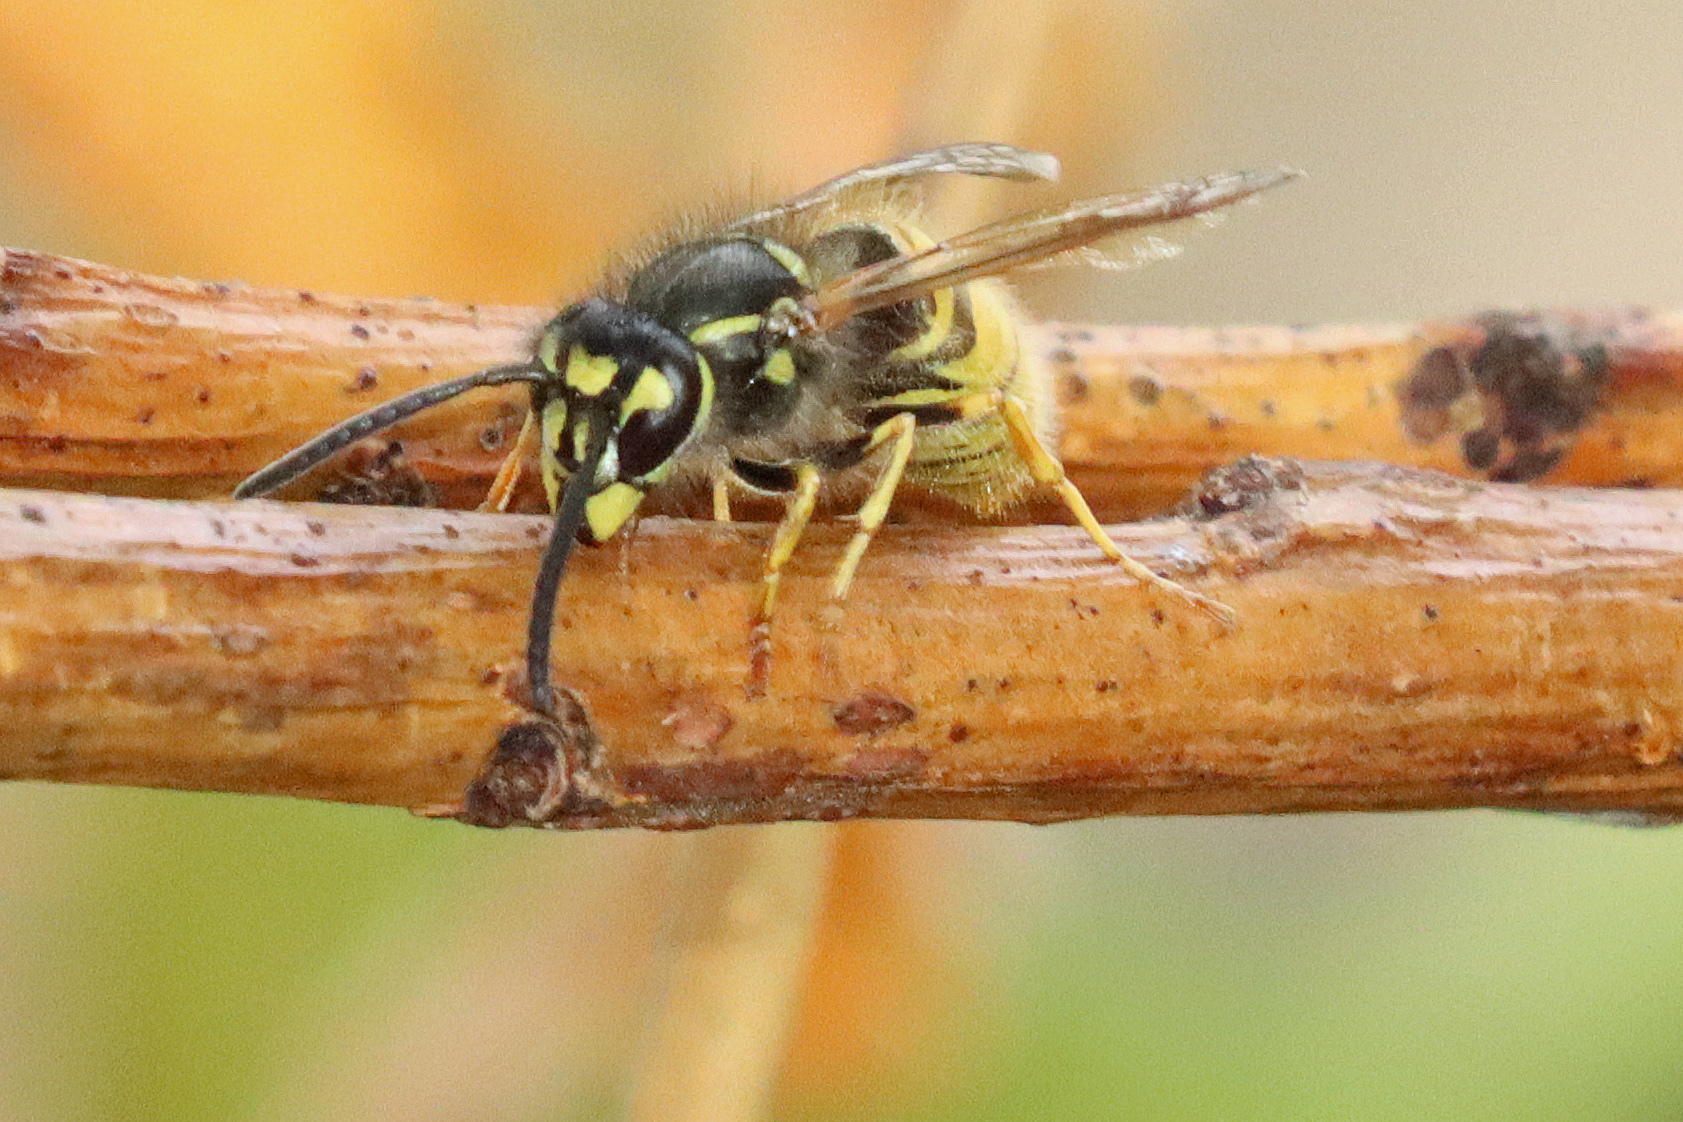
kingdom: Animalia
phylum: Arthropoda
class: Insecta
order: Hymenoptera
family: Vespidae
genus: Vespula
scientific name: Vespula vulgaris
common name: Common wasp
